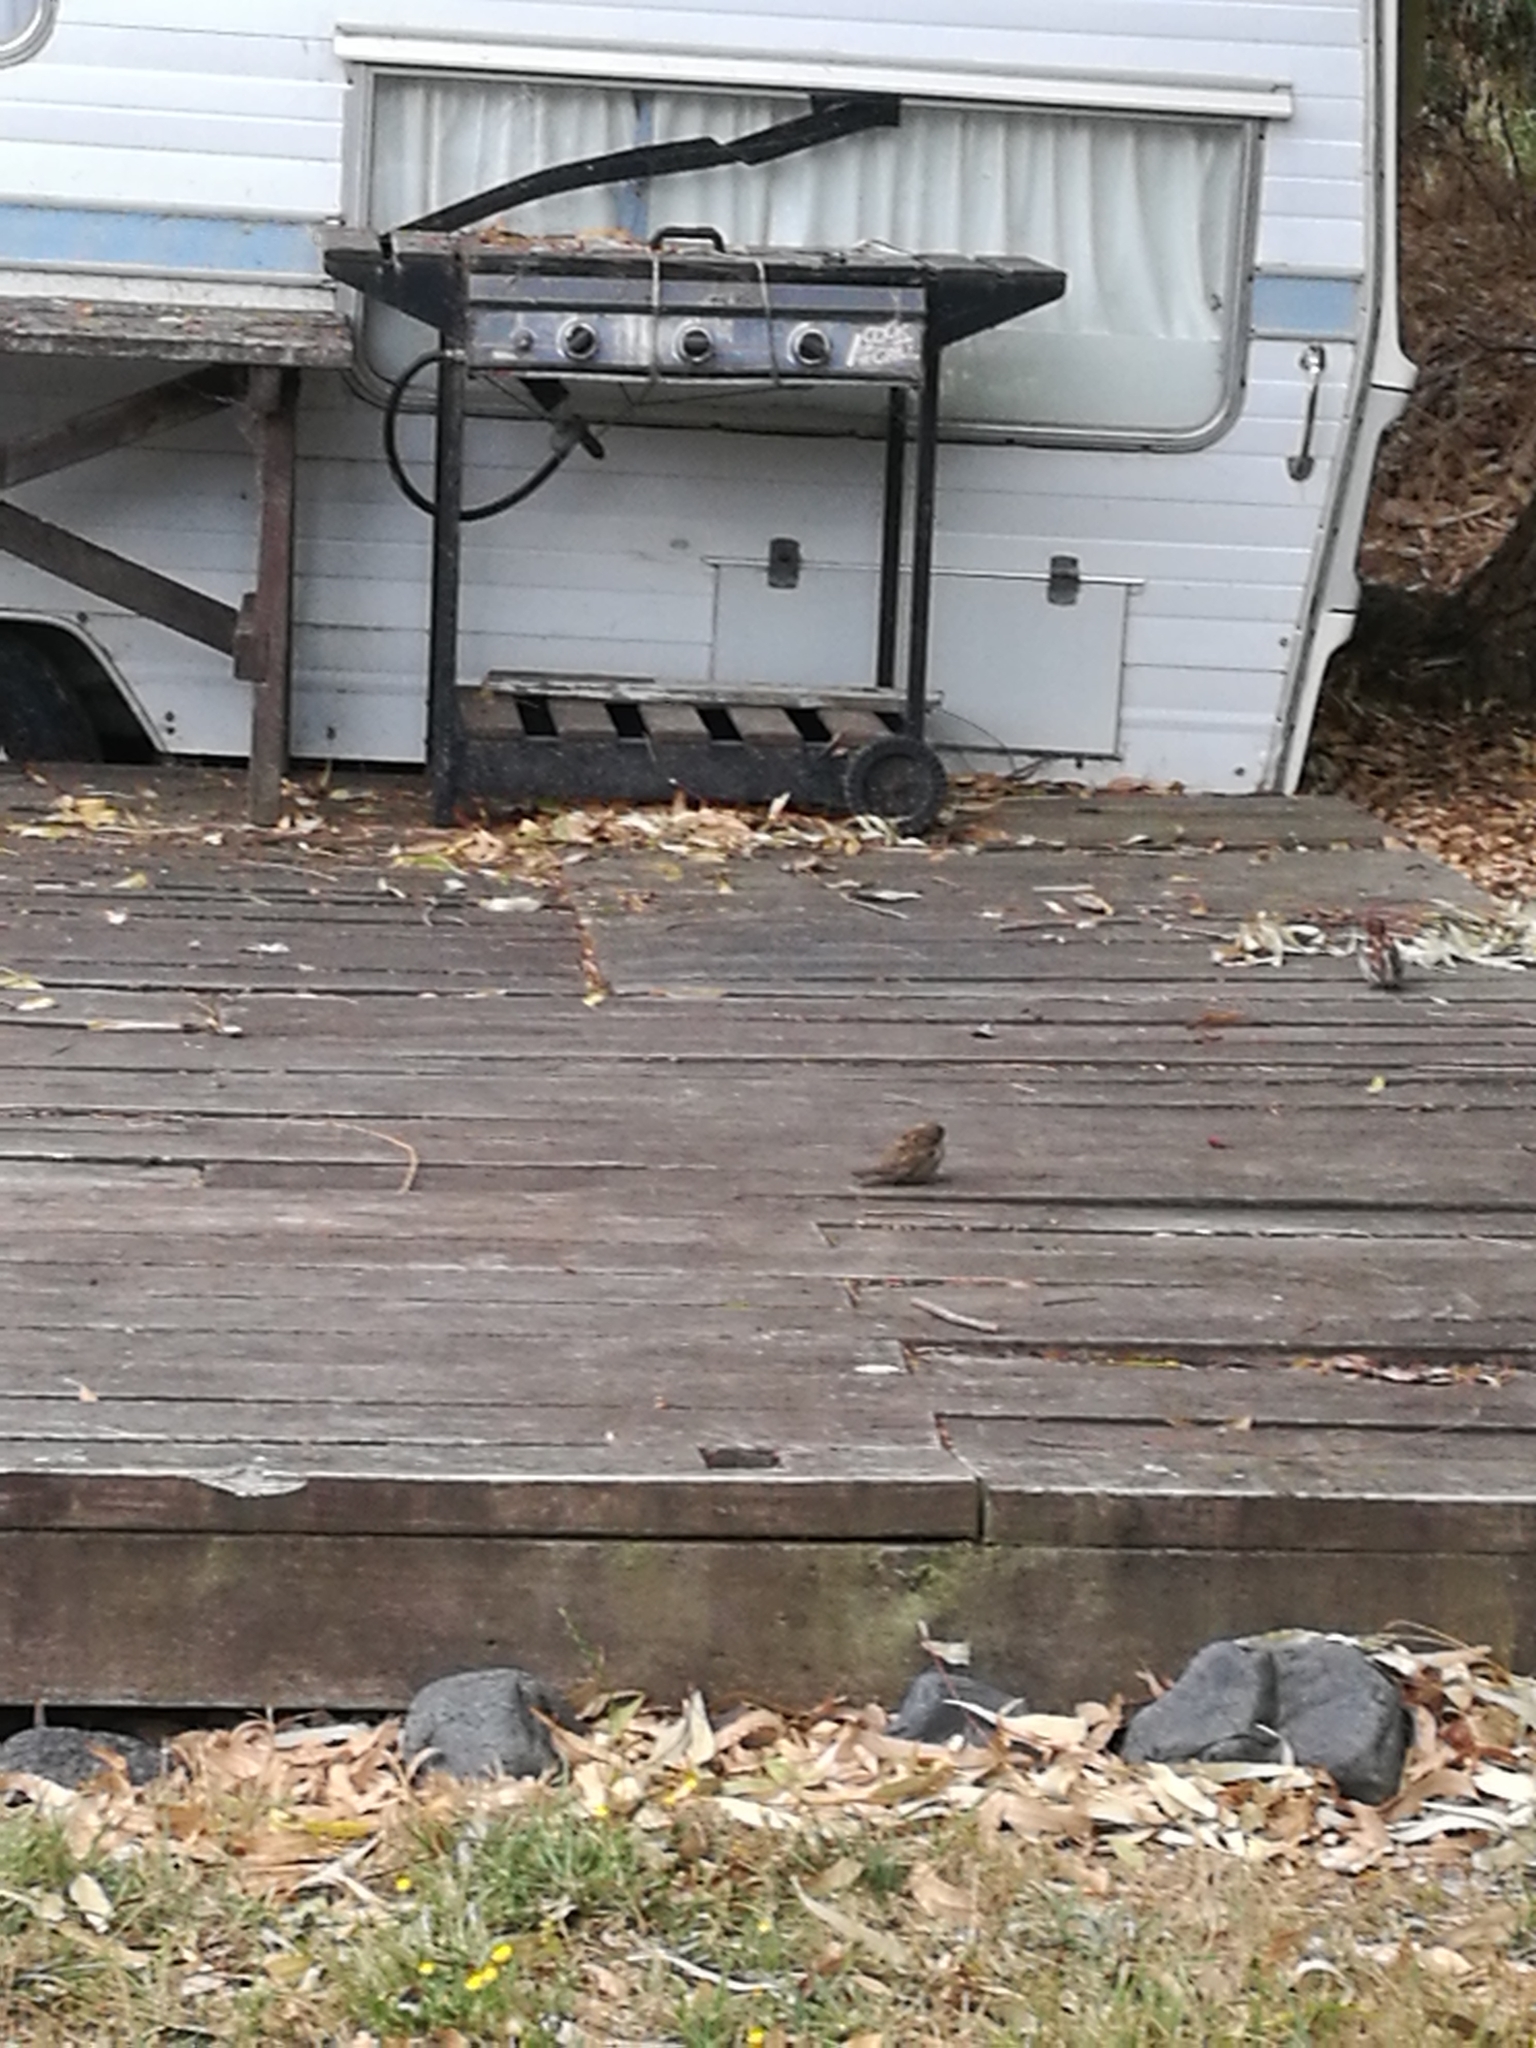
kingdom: Animalia
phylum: Chordata
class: Aves
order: Passeriformes
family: Passeridae
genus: Passer
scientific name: Passer domesticus
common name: House sparrow
